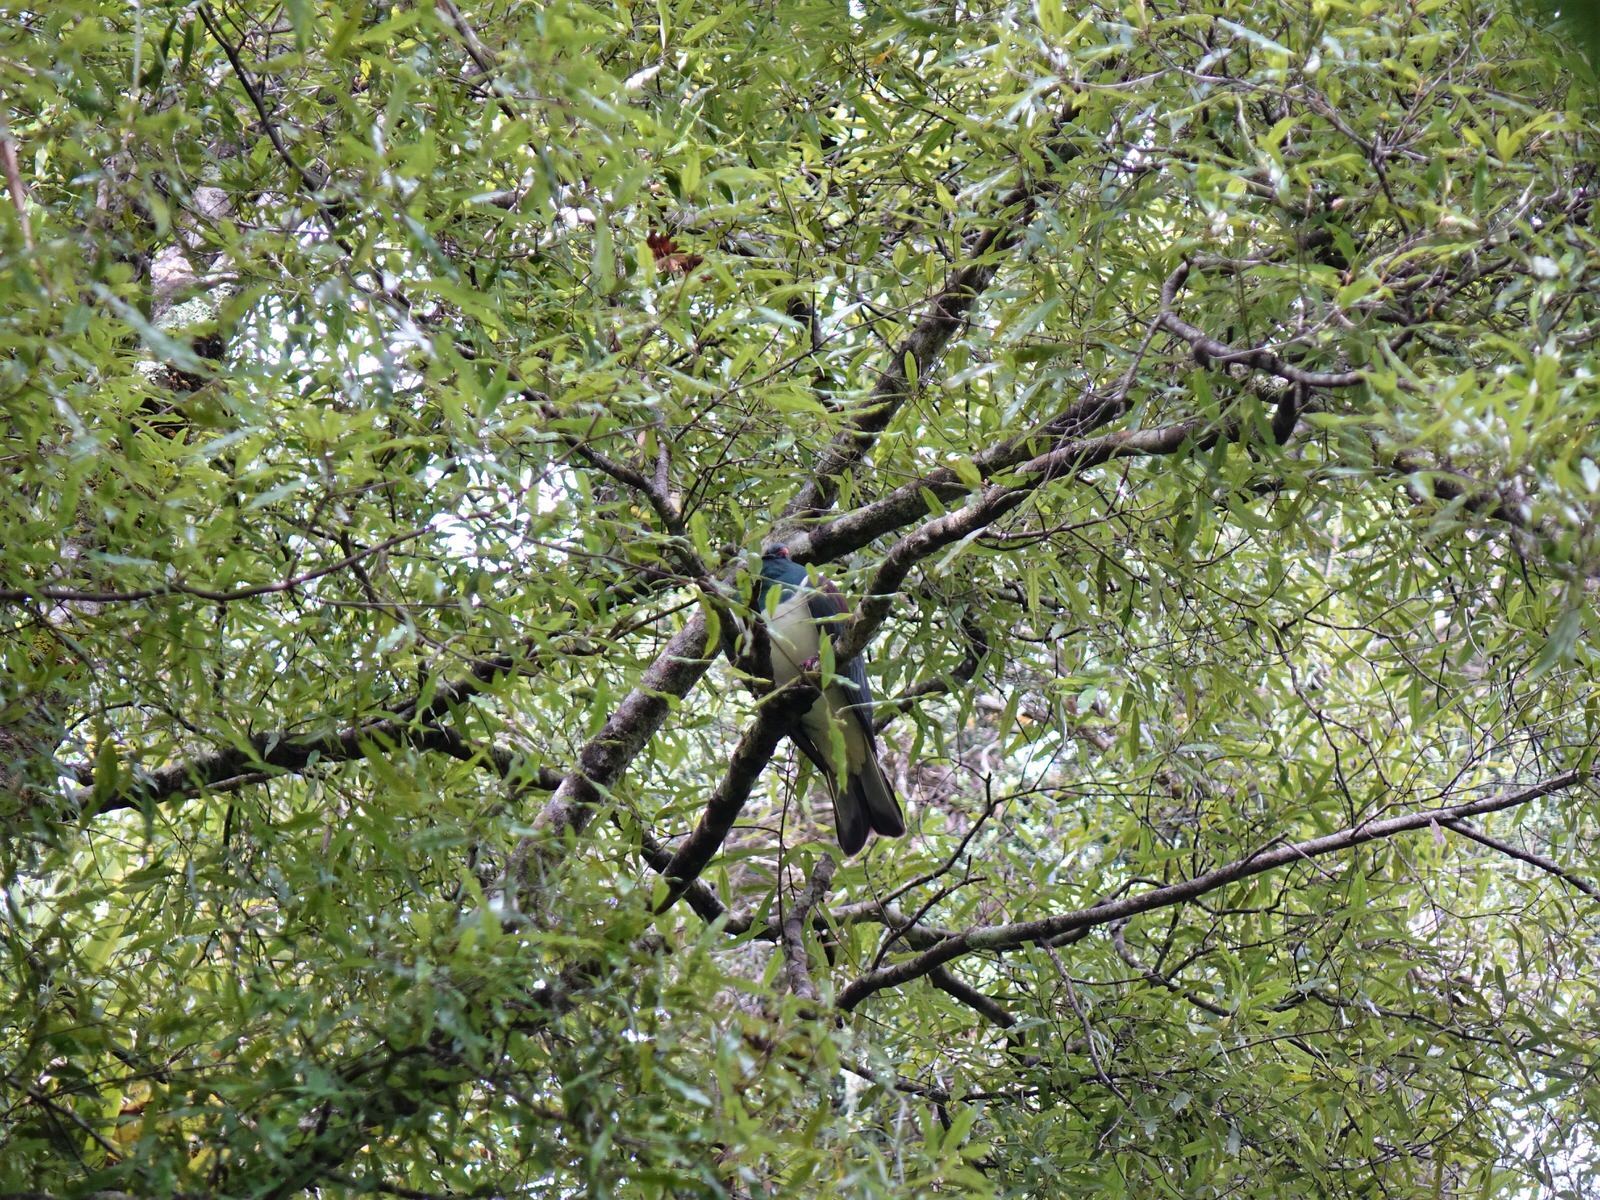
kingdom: Animalia
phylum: Chordata
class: Aves
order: Columbiformes
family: Columbidae
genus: Hemiphaga
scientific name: Hemiphaga novaeseelandiae
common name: New zealand pigeon
